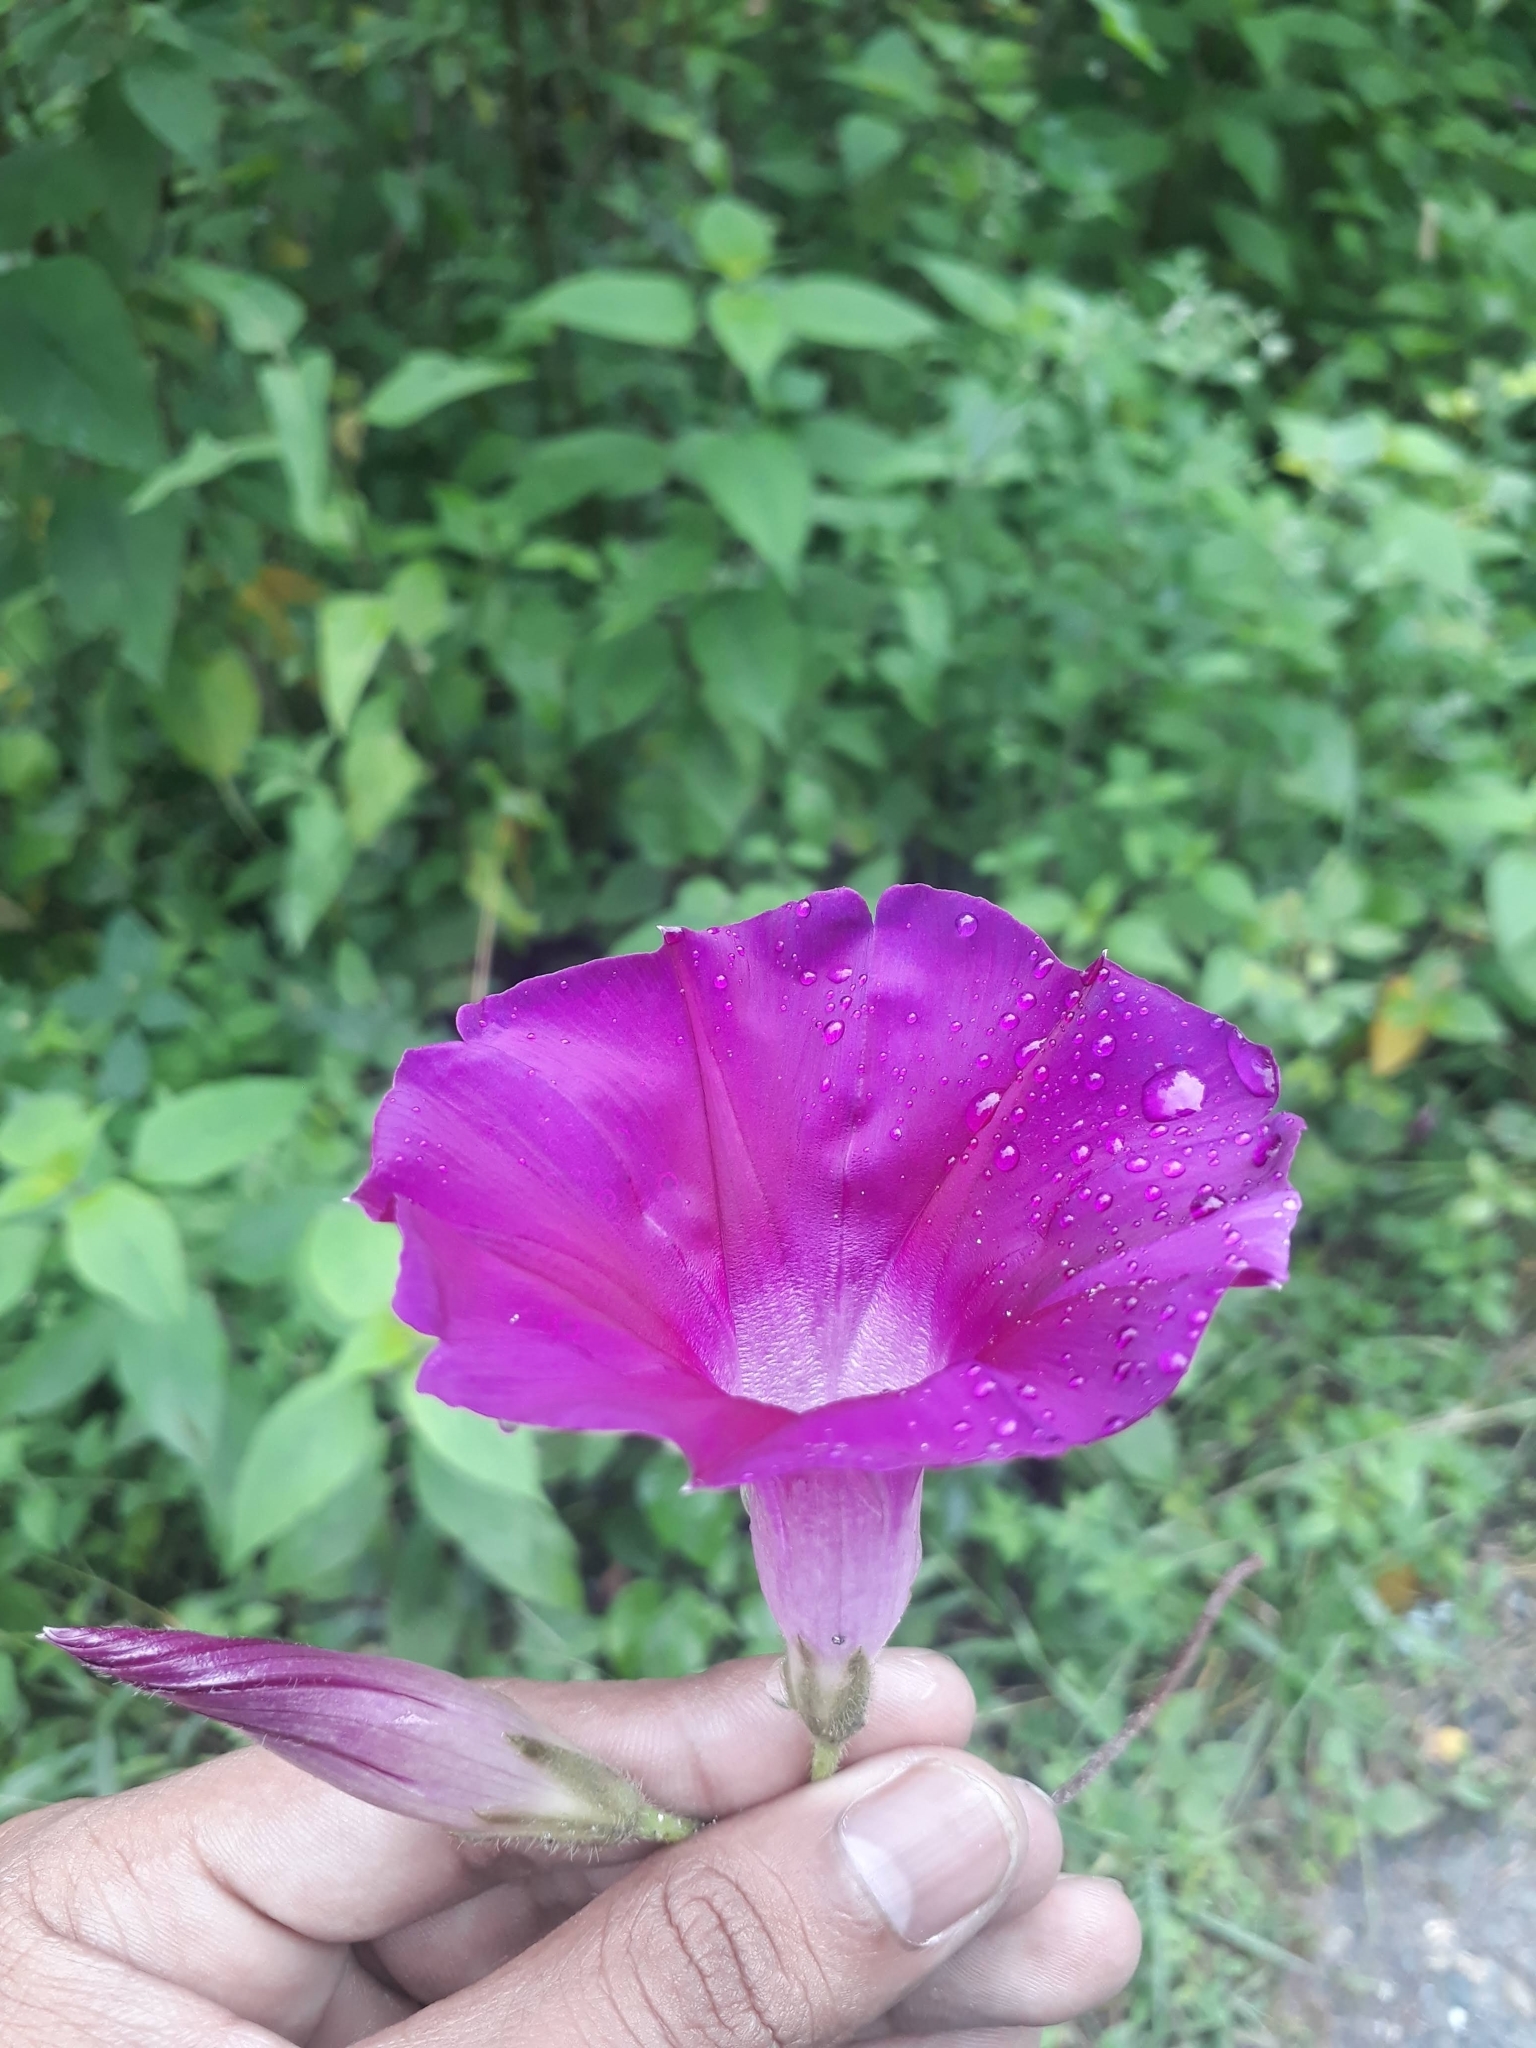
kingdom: Plantae
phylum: Tracheophyta
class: Magnoliopsida
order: Solanales
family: Convolvulaceae
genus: Ipomoea
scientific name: Ipomoea orizabensis
